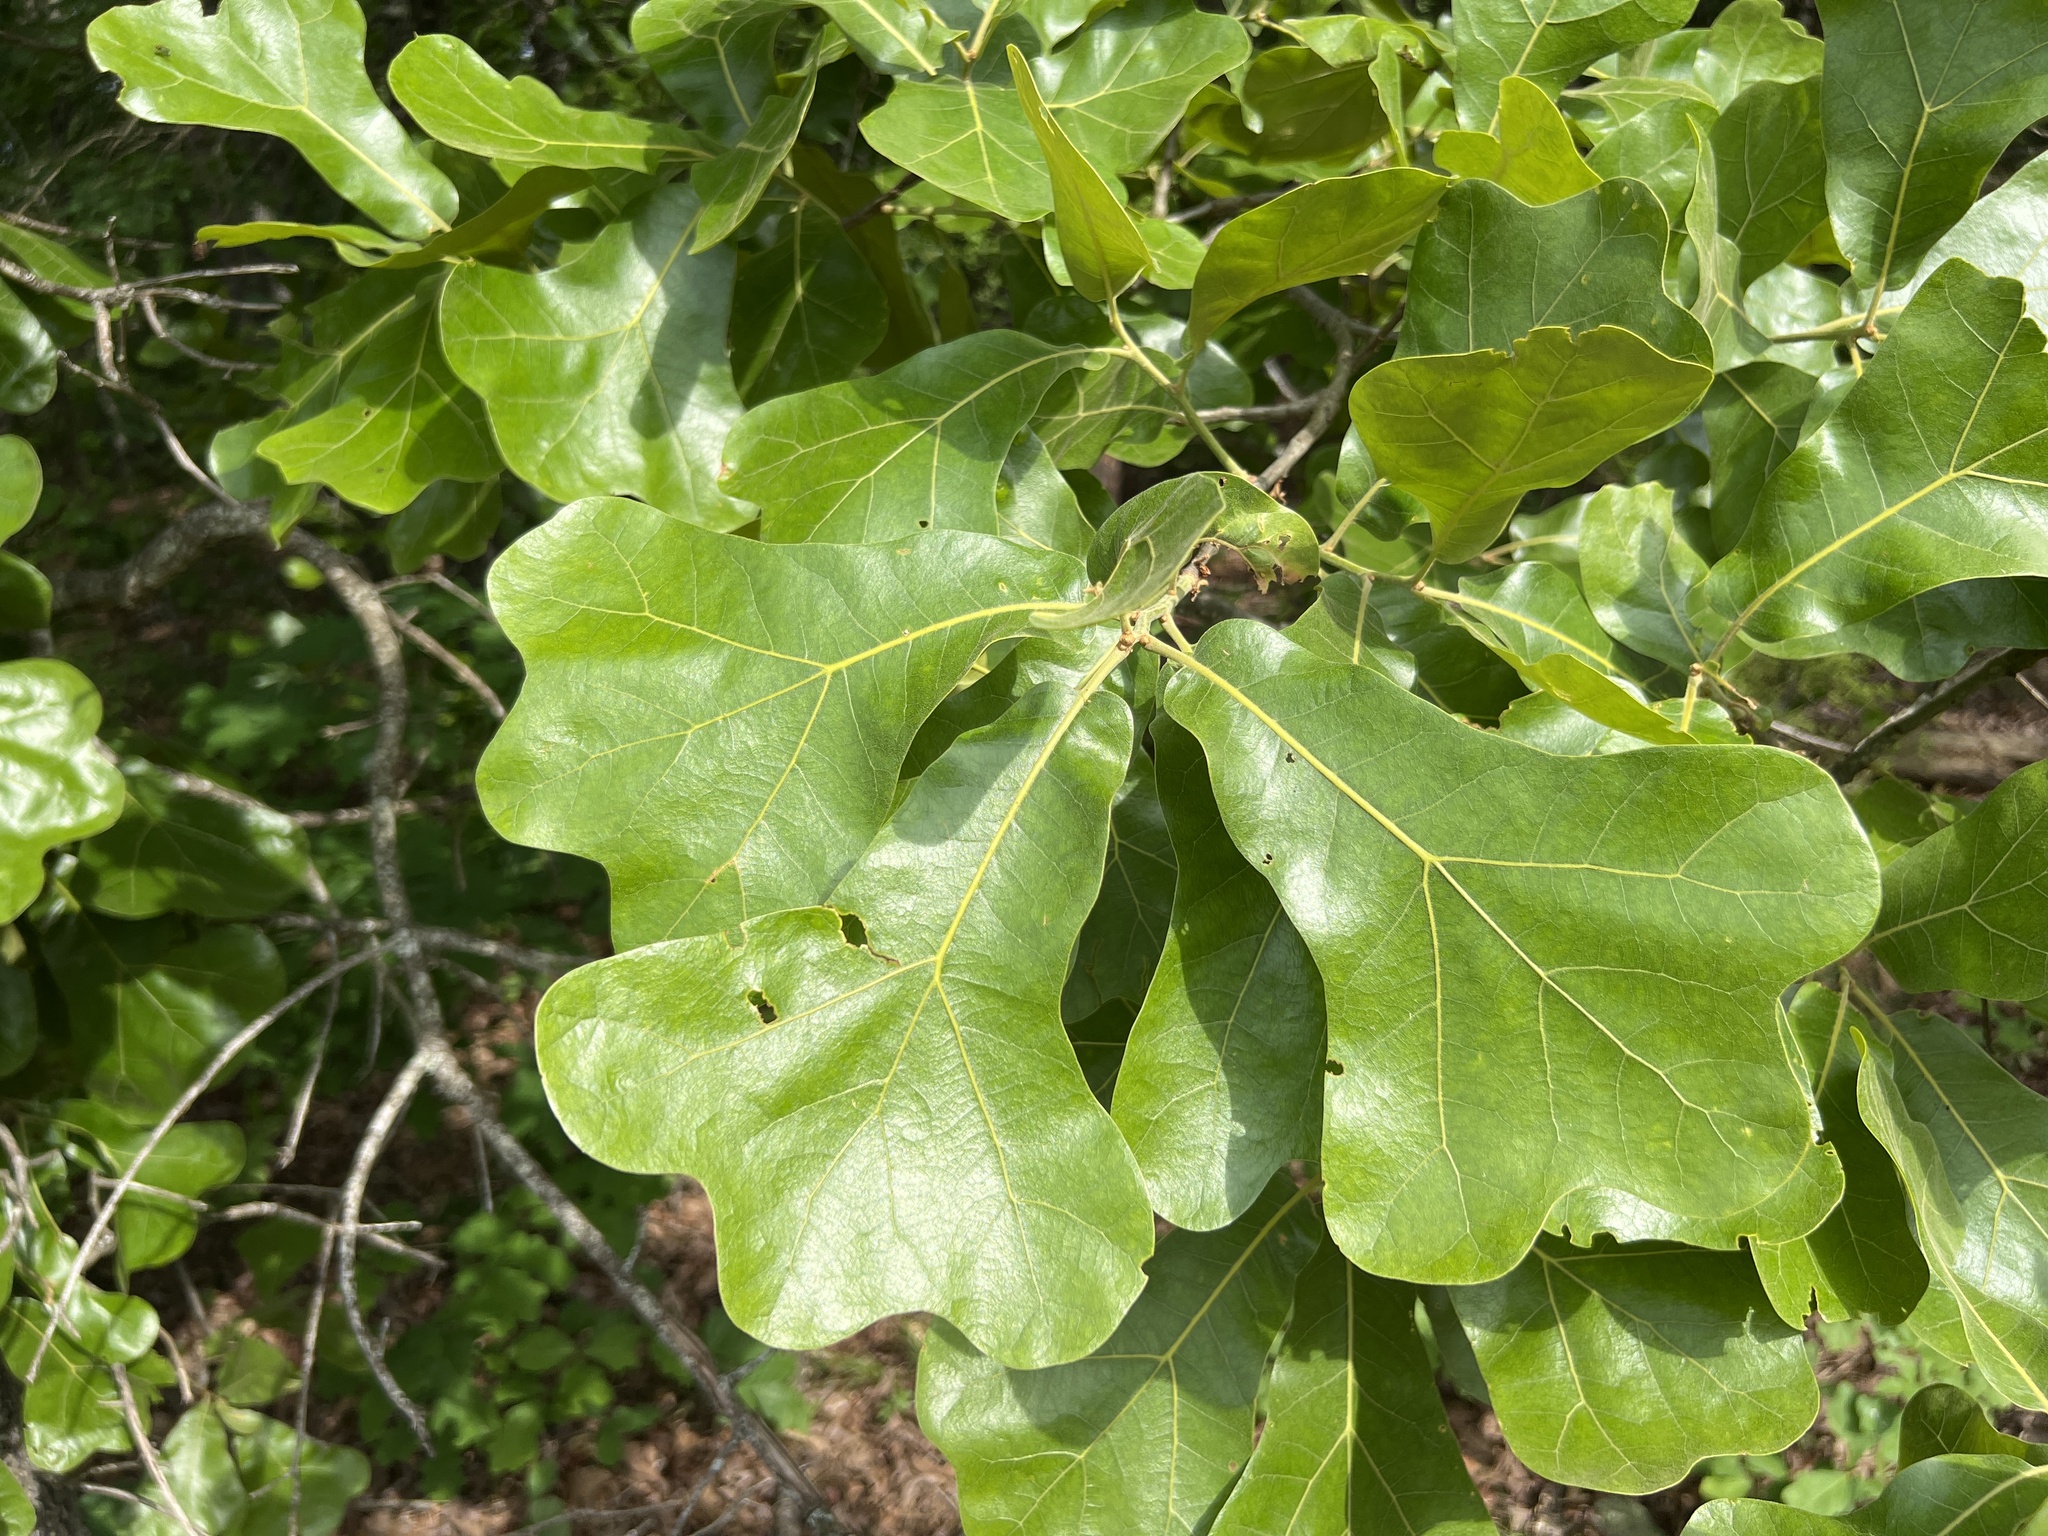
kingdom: Plantae
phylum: Tracheophyta
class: Magnoliopsida
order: Fagales
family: Fagaceae
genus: Quercus
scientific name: Quercus marilandica
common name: Blackjack oak
